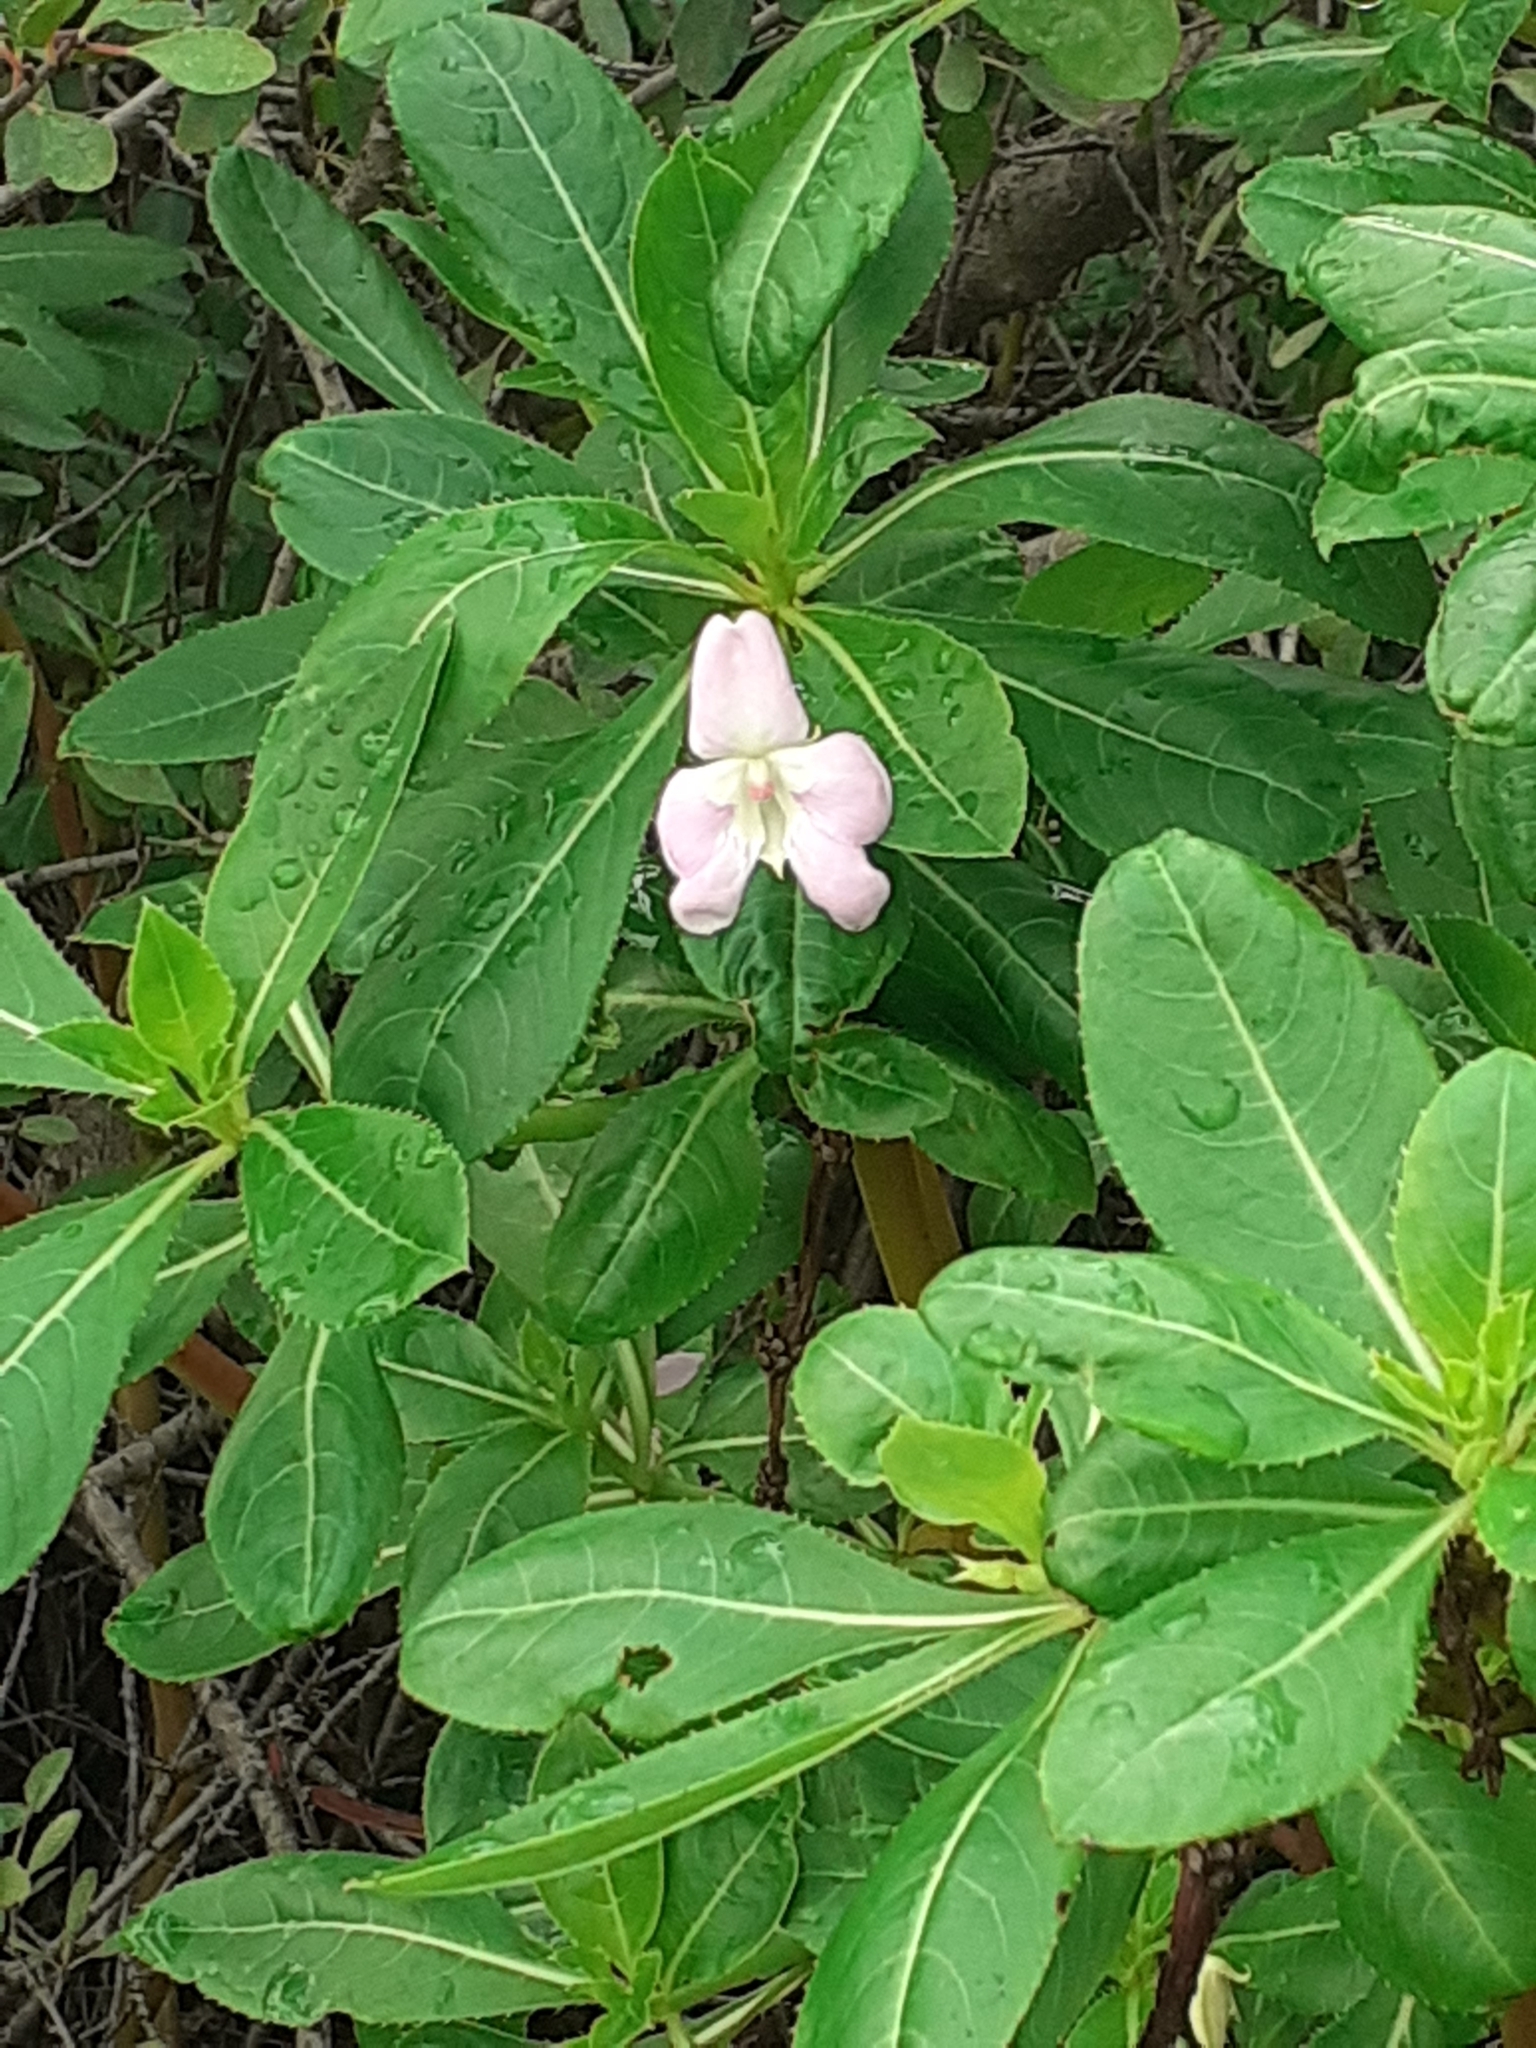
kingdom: Plantae
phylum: Tracheophyta
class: Magnoliopsida
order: Ericales
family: Balsaminaceae
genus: Impatiens
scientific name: Impatiens sodenii
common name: Oliver's touch-me-not
